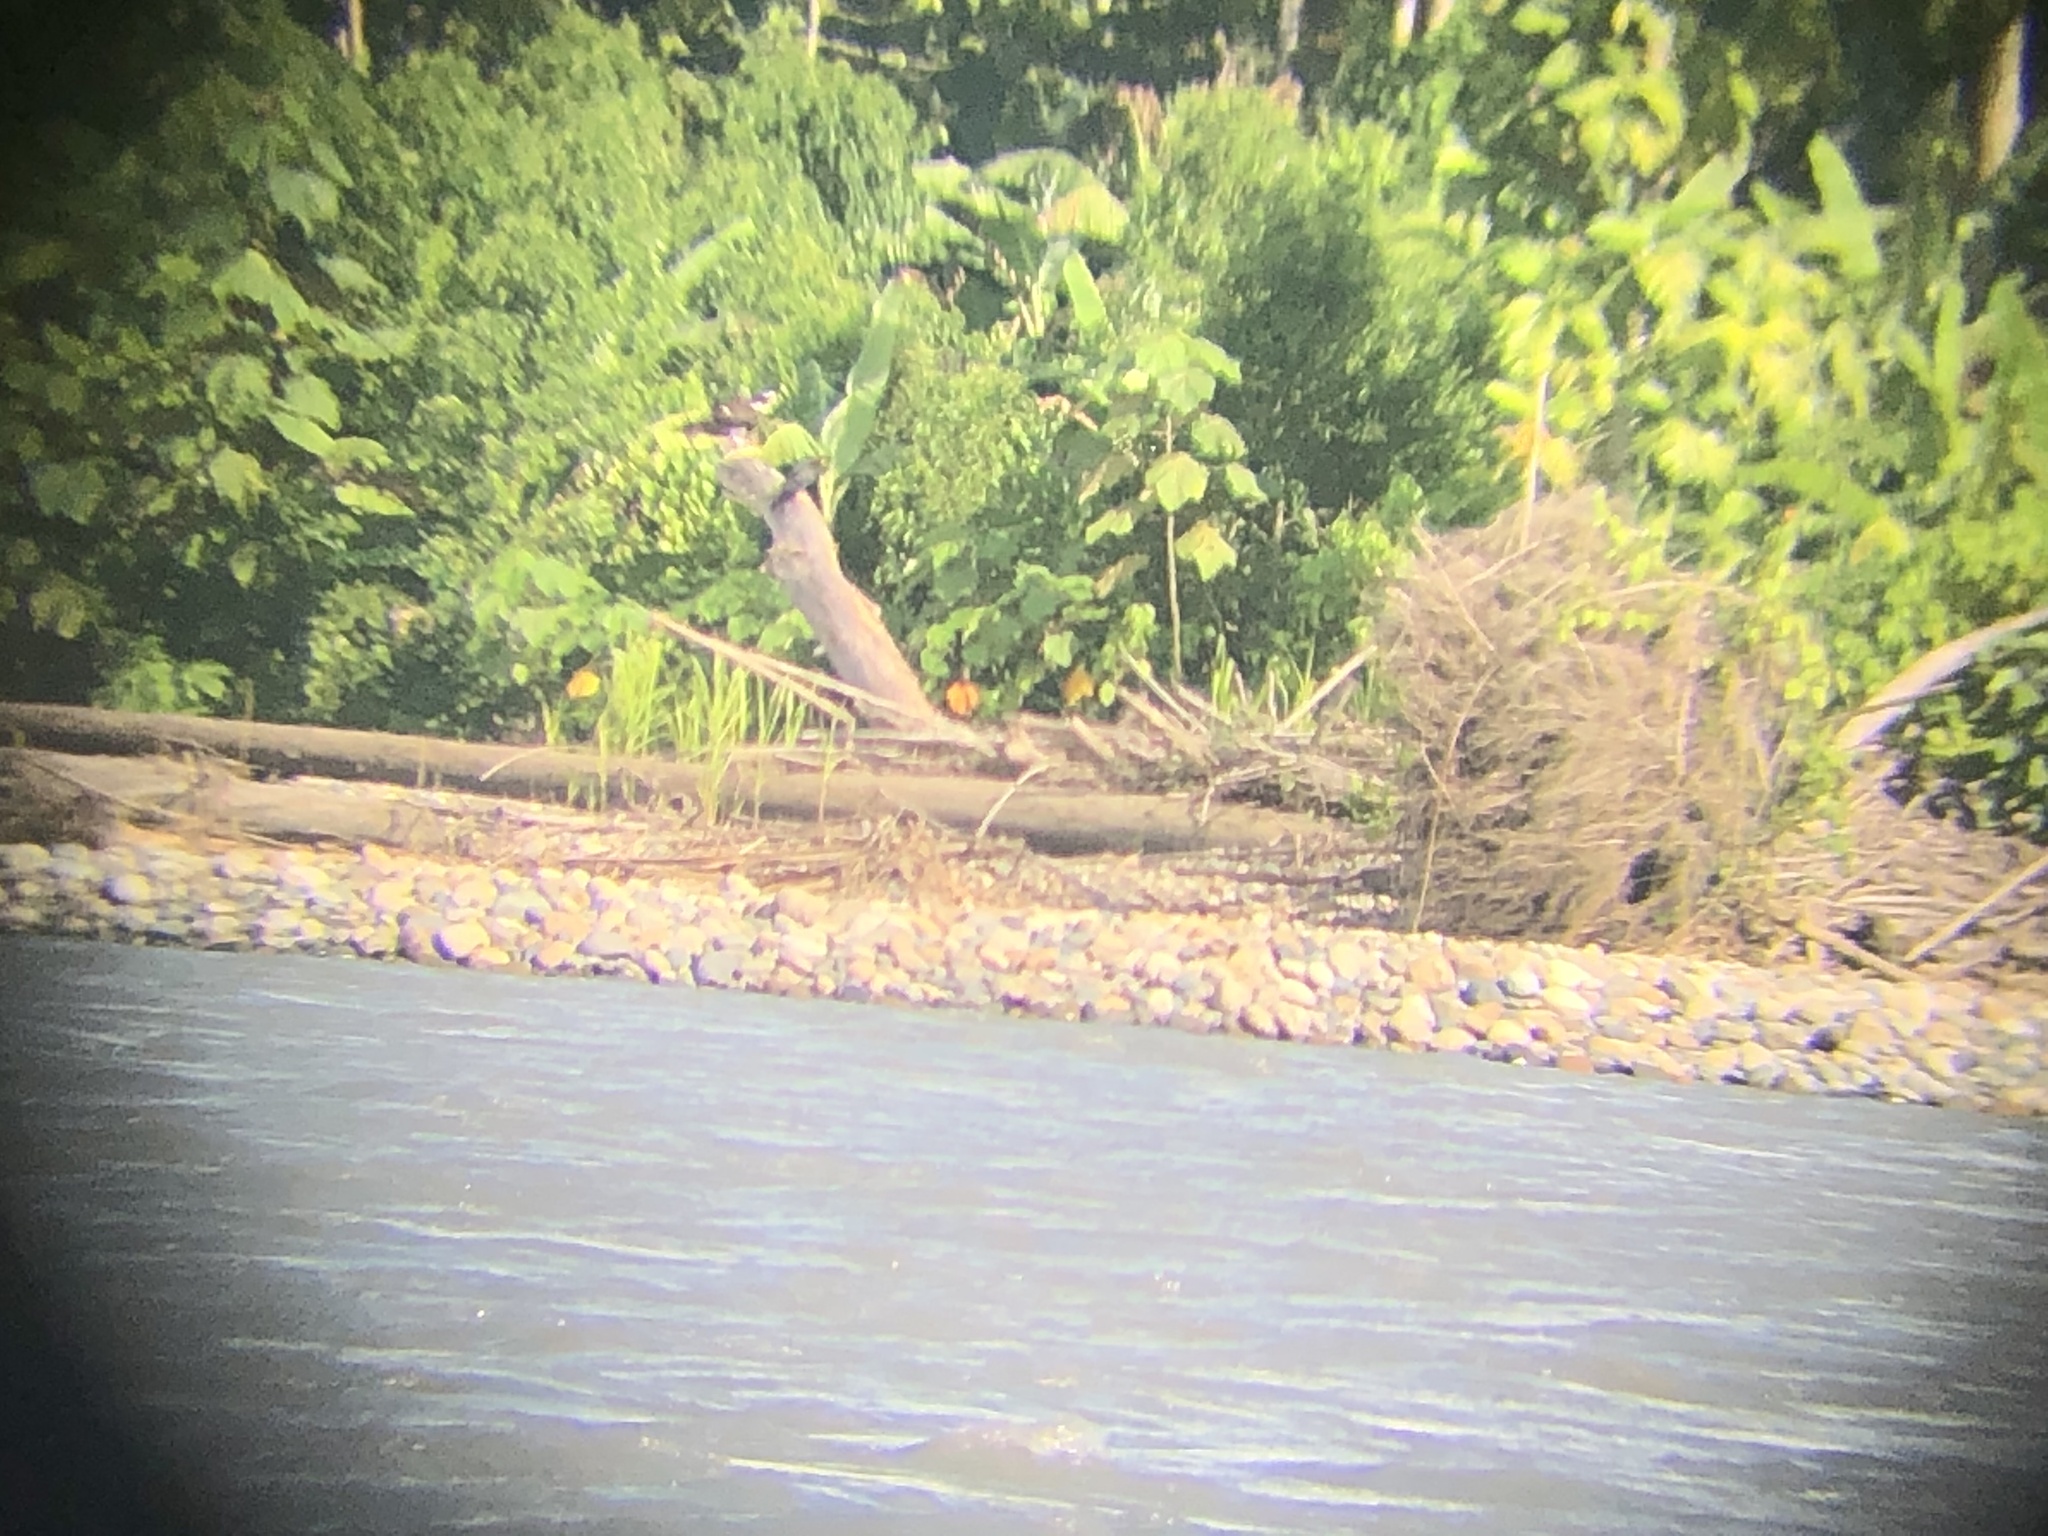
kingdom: Animalia
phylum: Chordata
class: Aves
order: Accipitriformes
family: Pandionidae
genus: Pandion
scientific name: Pandion haliaetus
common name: Osprey
